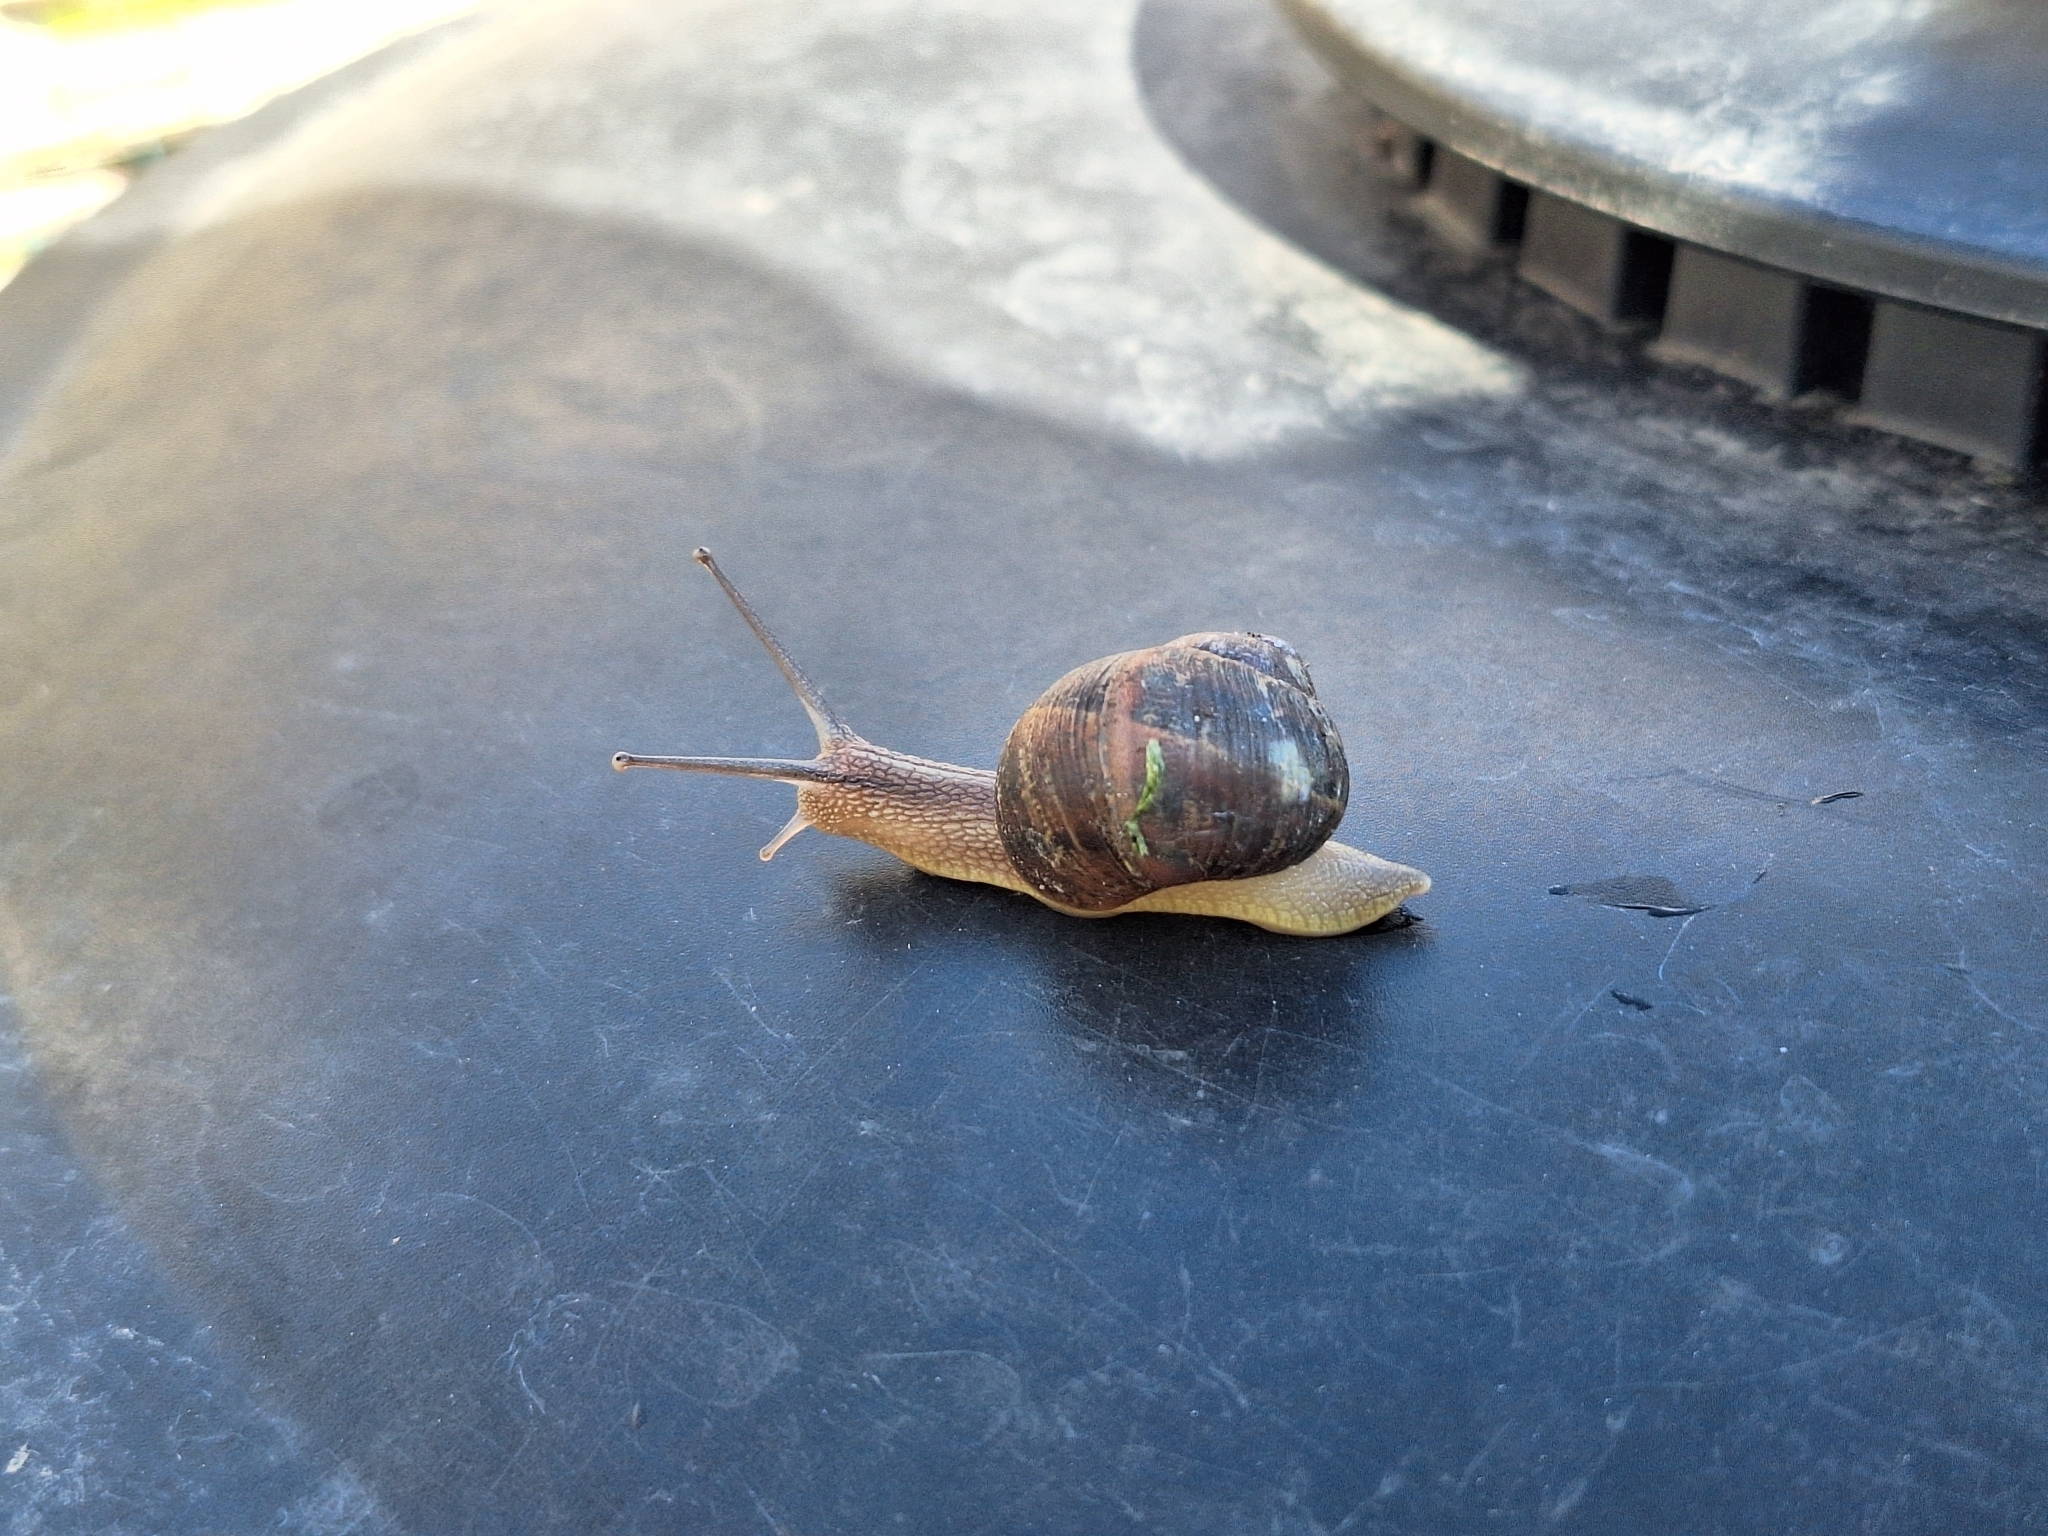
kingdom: Animalia
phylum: Mollusca
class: Gastropoda
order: Stylommatophora
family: Helicidae
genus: Cornu
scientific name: Cornu aspersum
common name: Brown garden snail
